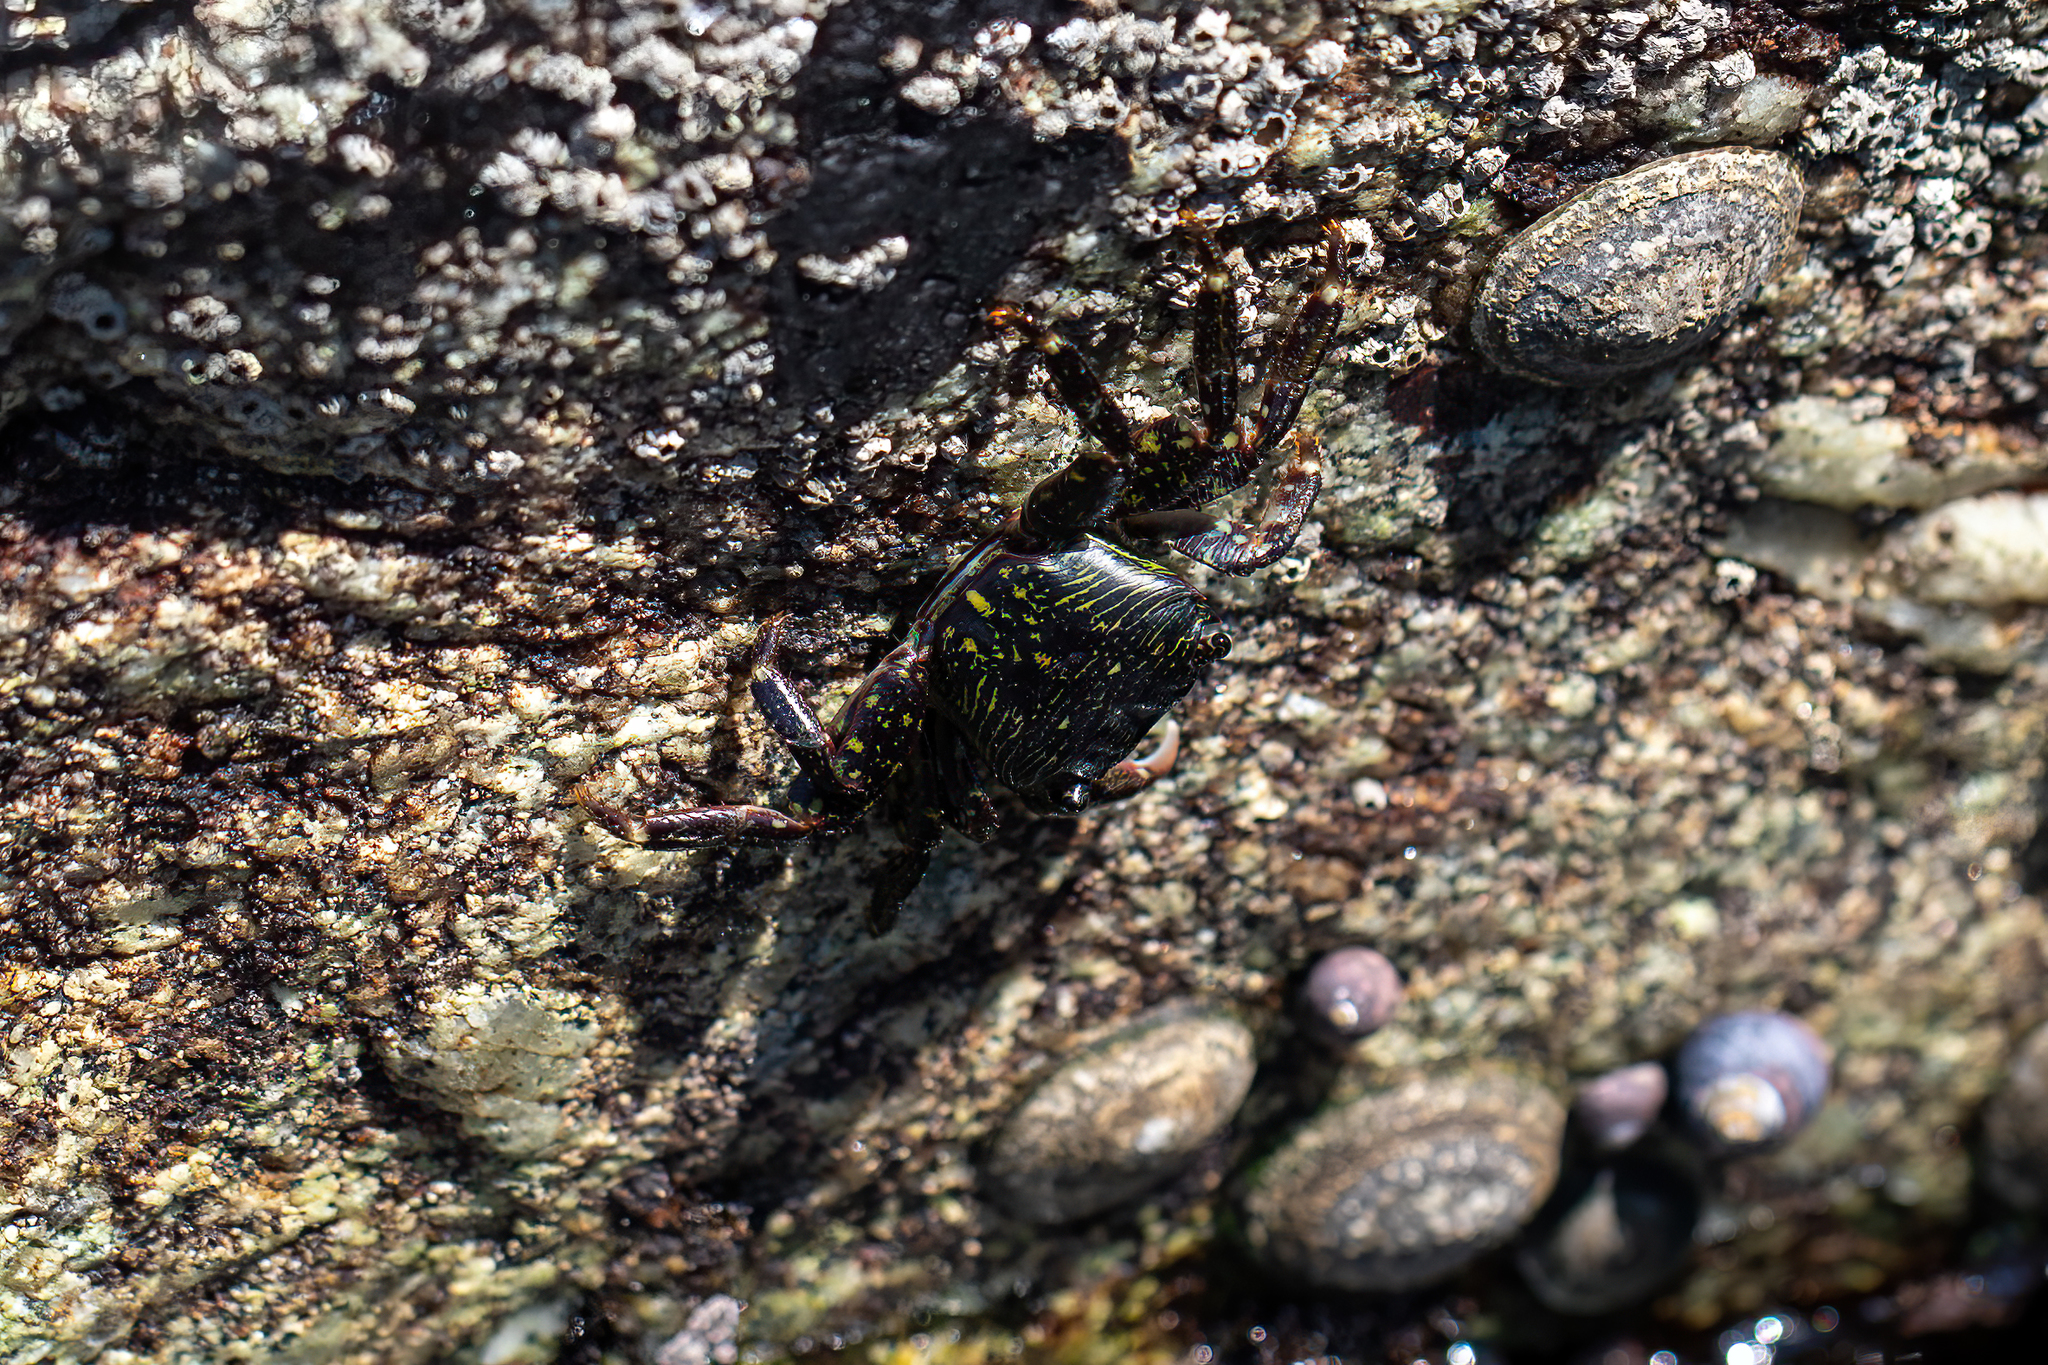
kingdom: Animalia
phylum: Arthropoda
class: Malacostraca
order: Decapoda
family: Grapsidae
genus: Pachygrapsus
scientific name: Pachygrapsus crassipes
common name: Striped shore crab
